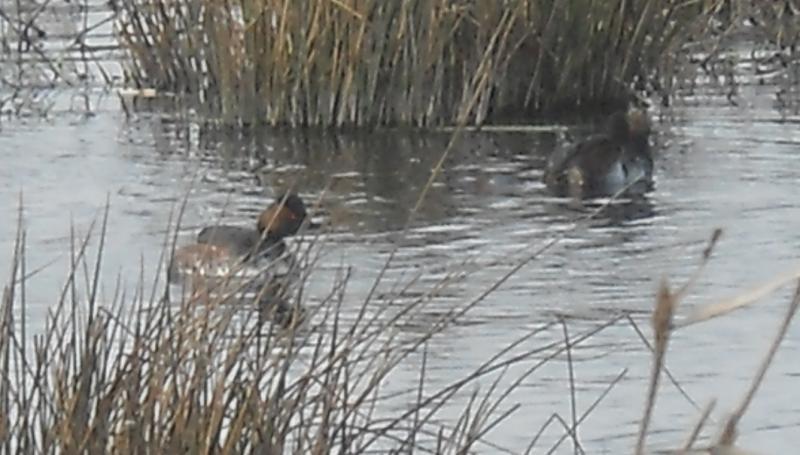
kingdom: Animalia
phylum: Chordata
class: Aves
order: Podicipediformes
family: Podicipedidae
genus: Podiceps
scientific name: Podiceps nigricollis
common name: Black-necked grebe
